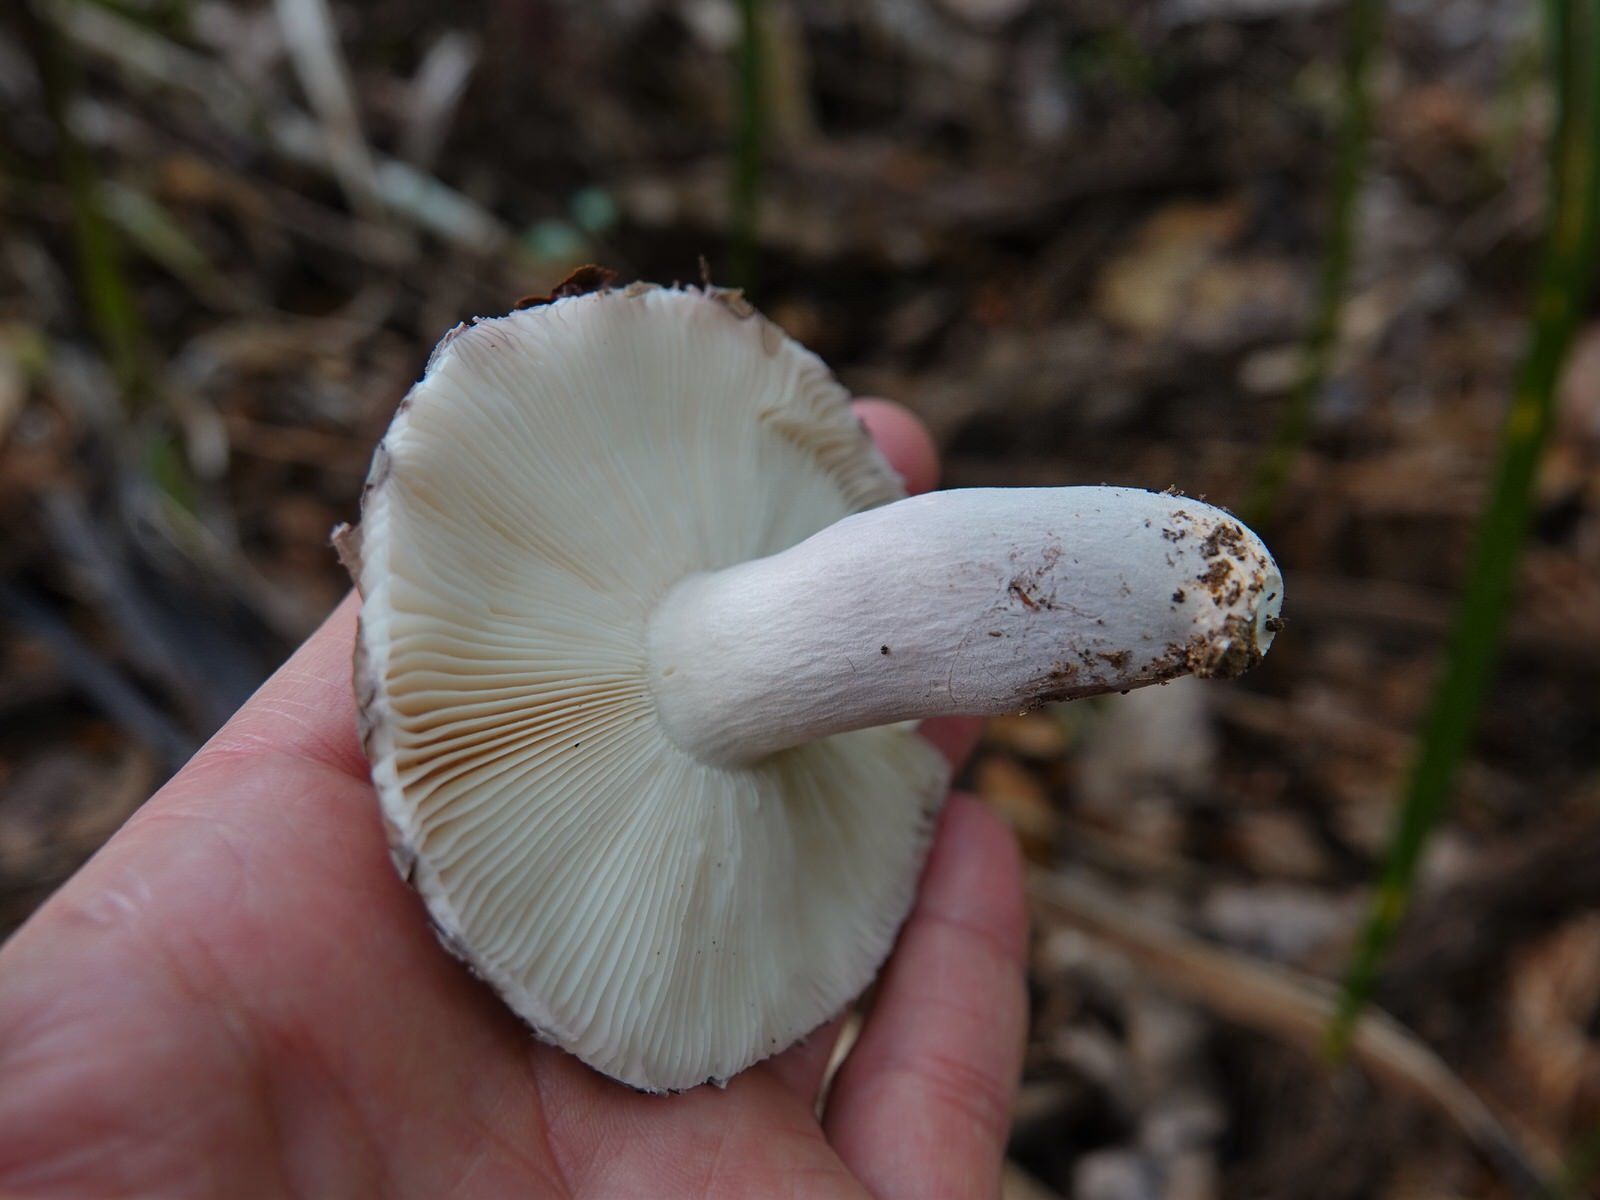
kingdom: Fungi
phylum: Basidiomycota
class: Agaricomycetes
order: Russulales
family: Russulaceae
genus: Russula
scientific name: Russula griseoviridis
